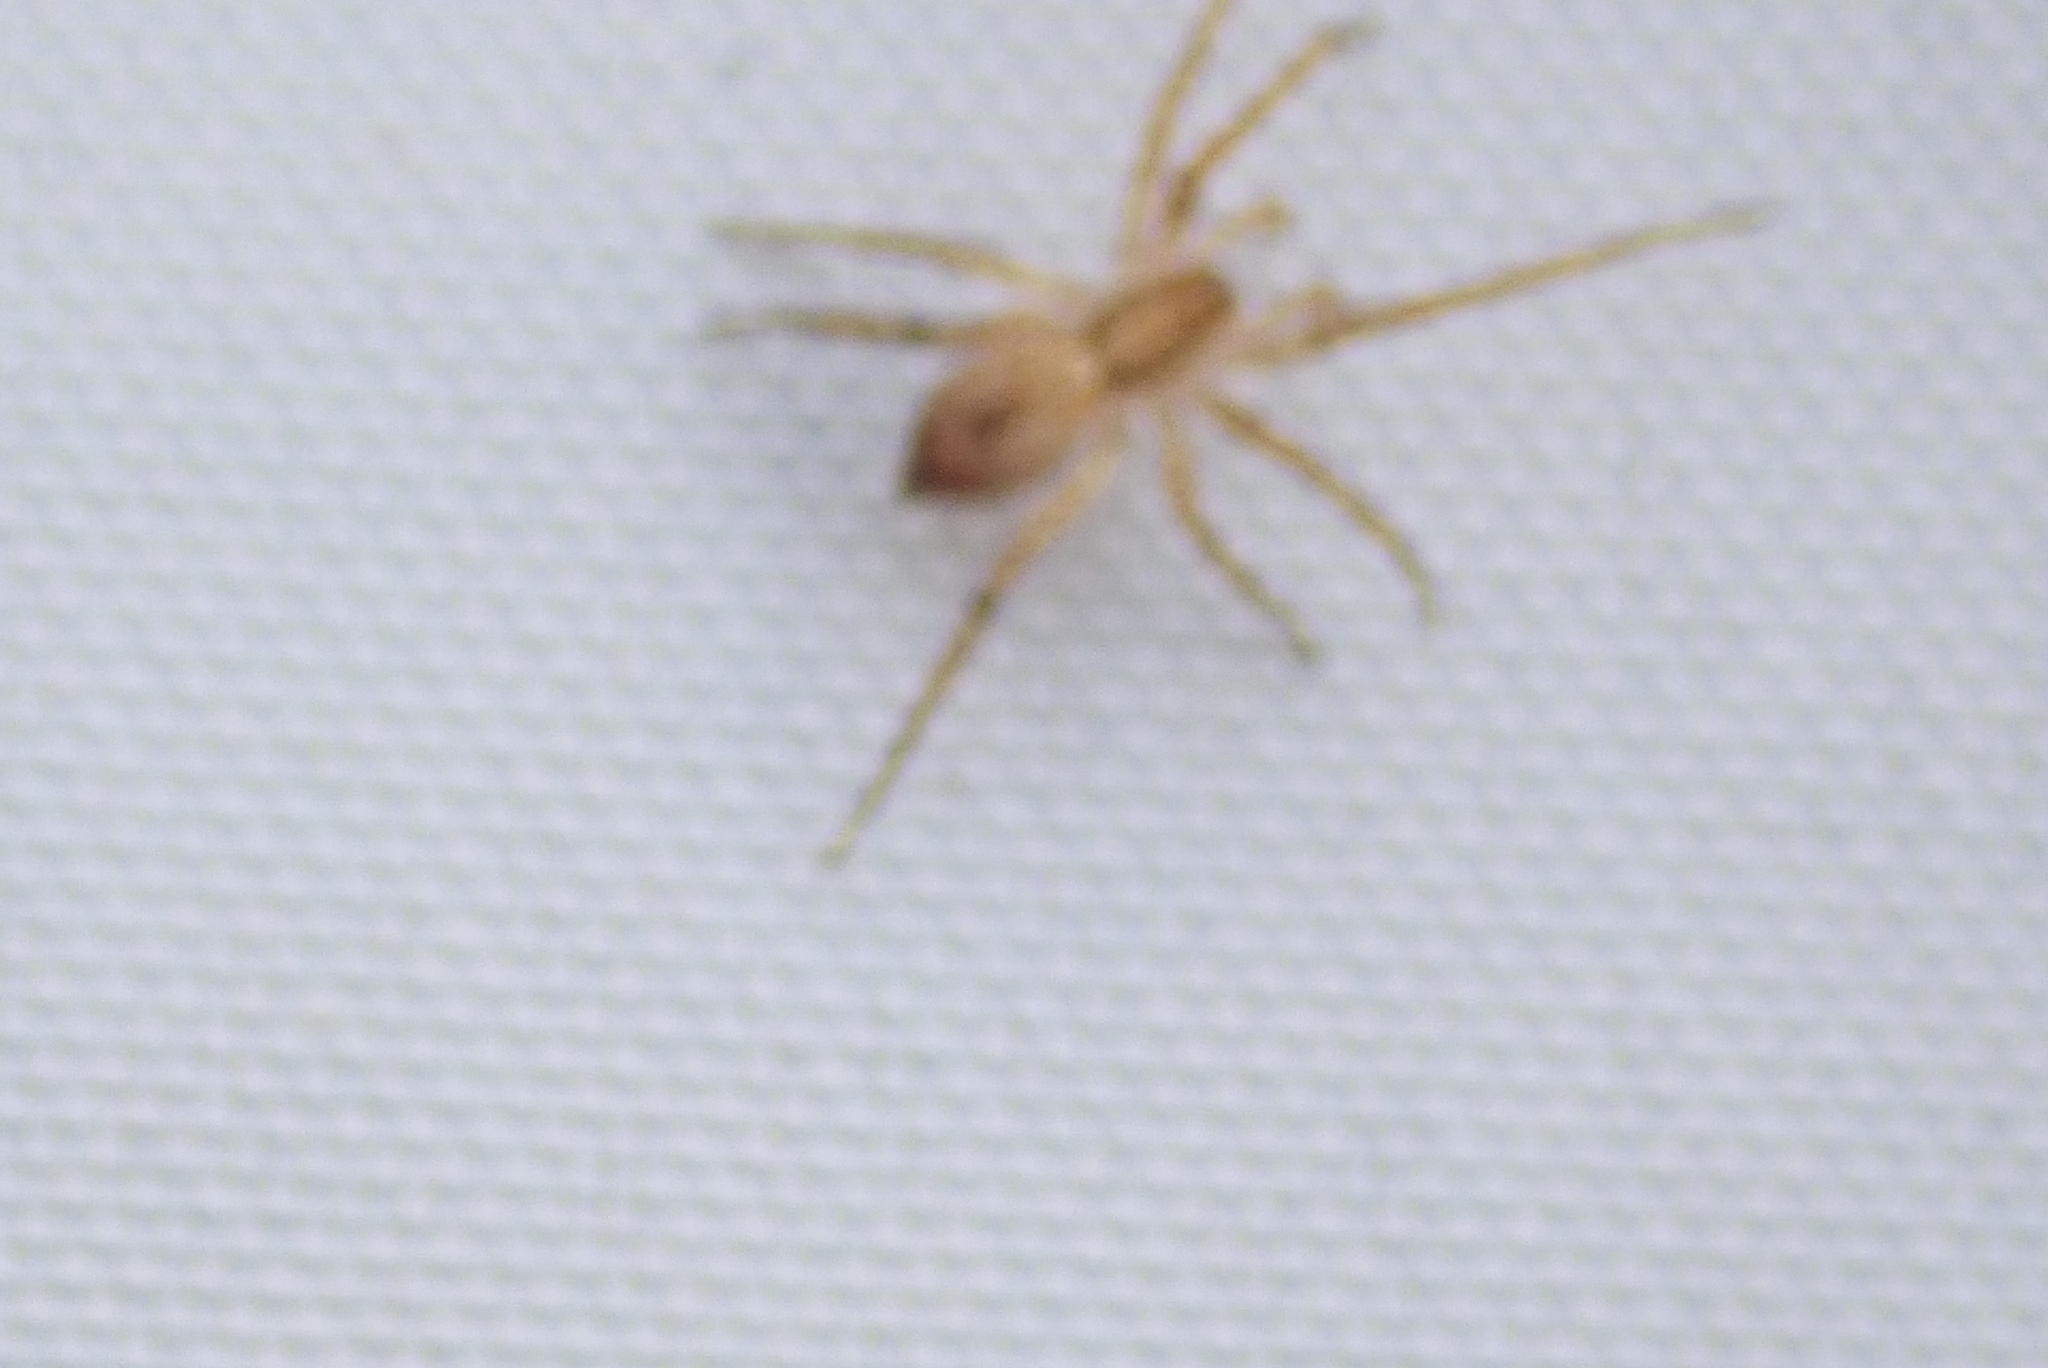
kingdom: Animalia
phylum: Arthropoda
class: Arachnida
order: Araneae
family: Anyphaenidae
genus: Anyphaena
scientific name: Anyphaena accentuata
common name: Buzzing spider
